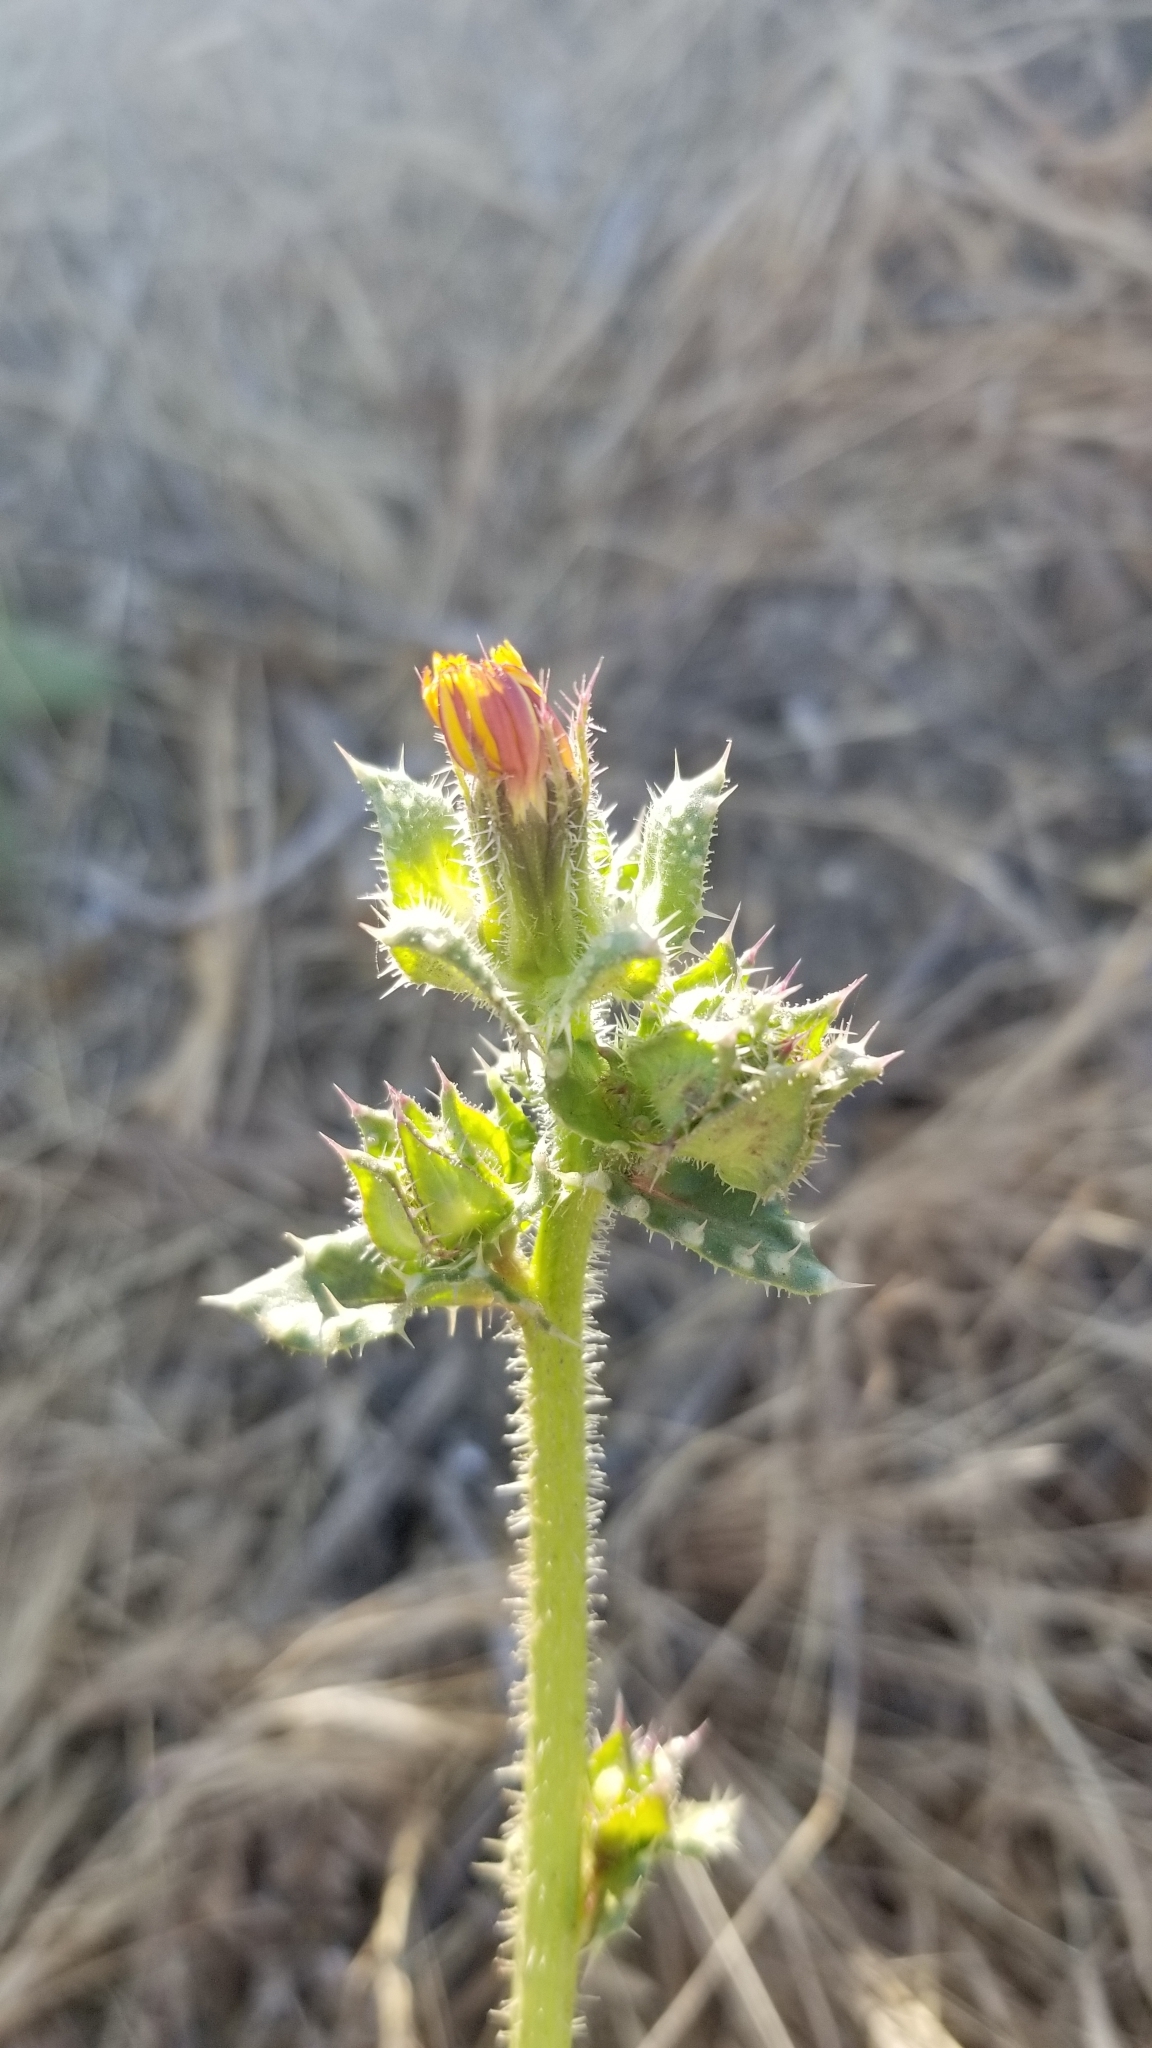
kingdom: Plantae
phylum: Tracheophyta
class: Magnoliopsida
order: Asterales
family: Asteraceae
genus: Helminthotheca
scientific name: Helminthotheca echioides
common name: Ox-tongue
